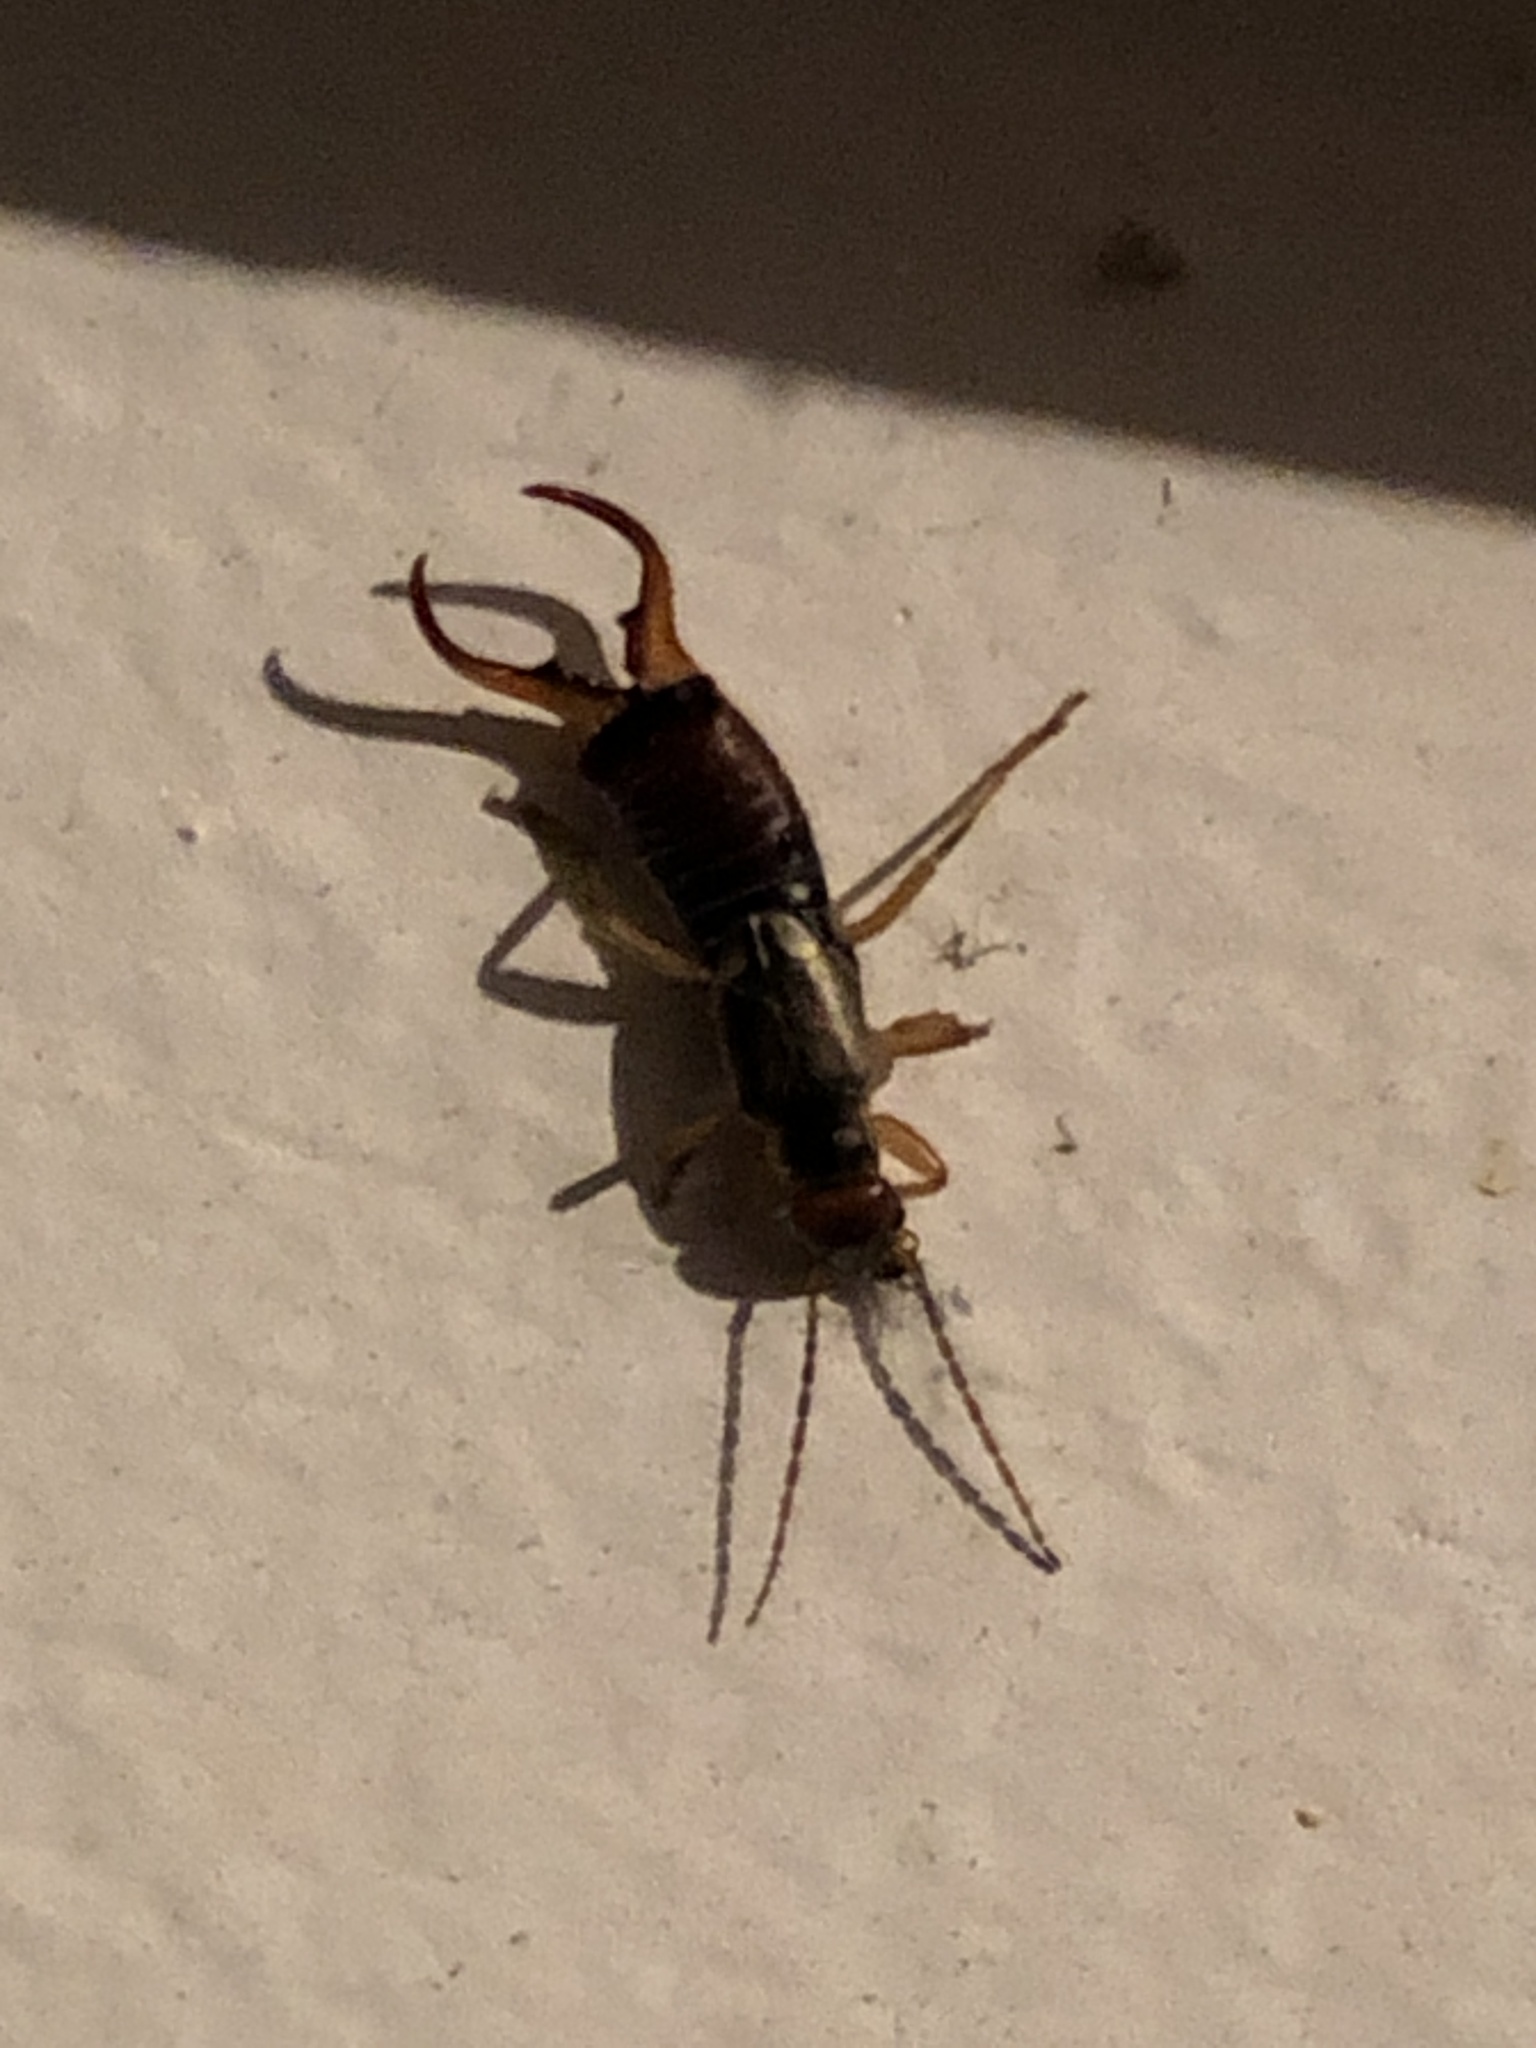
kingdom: Animalia
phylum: Arthropoda
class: Insecta
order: Dermaptera
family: Forficulidae
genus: Forficula
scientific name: Forficula
